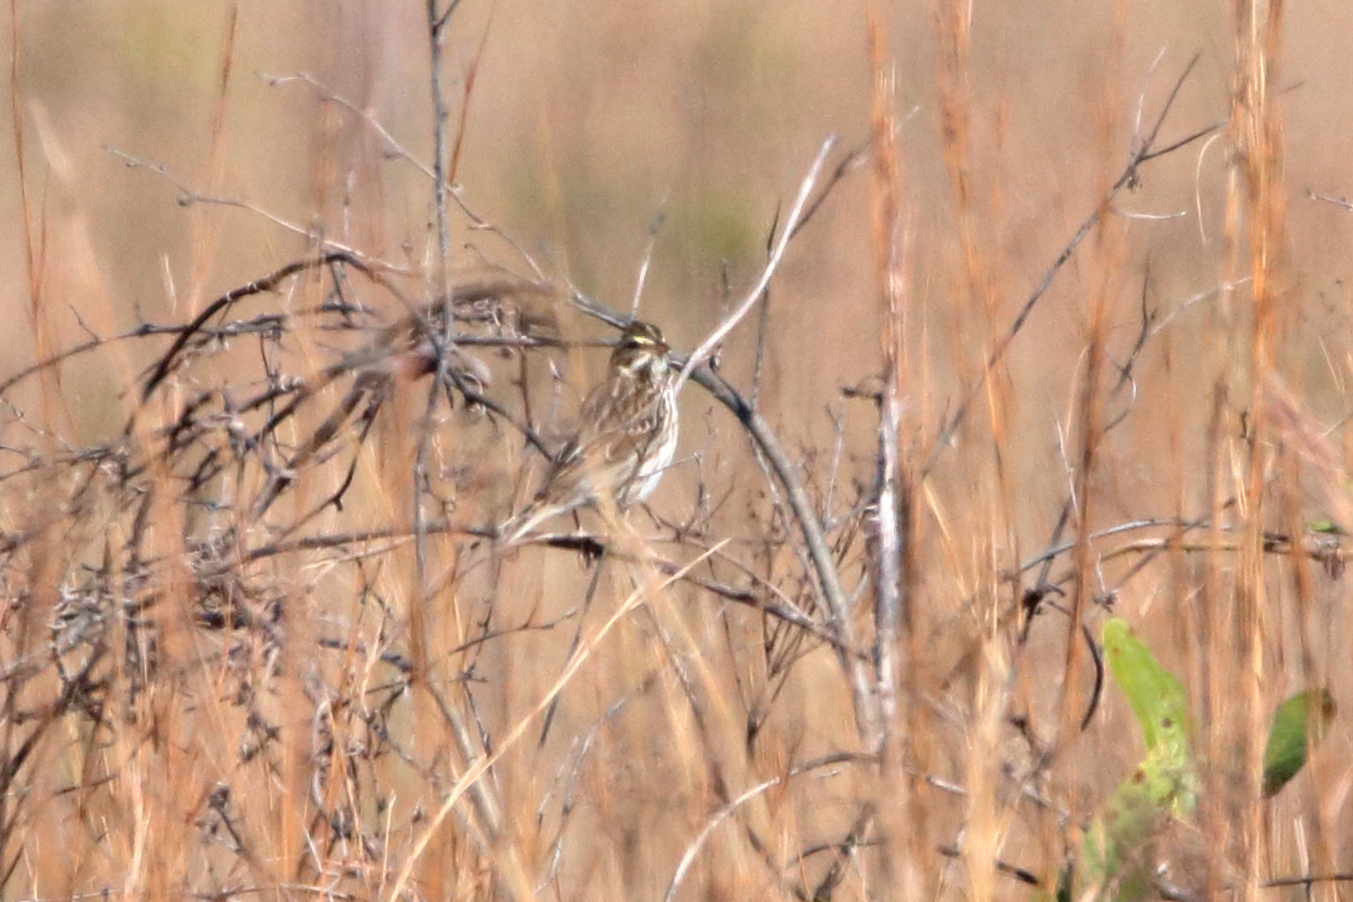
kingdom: Animalia
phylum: Chordata
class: Aves
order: Passeriformes
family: Passerellidae
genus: Passerculus
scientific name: Passerculus sandwichensis
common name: Savannah sparrow
